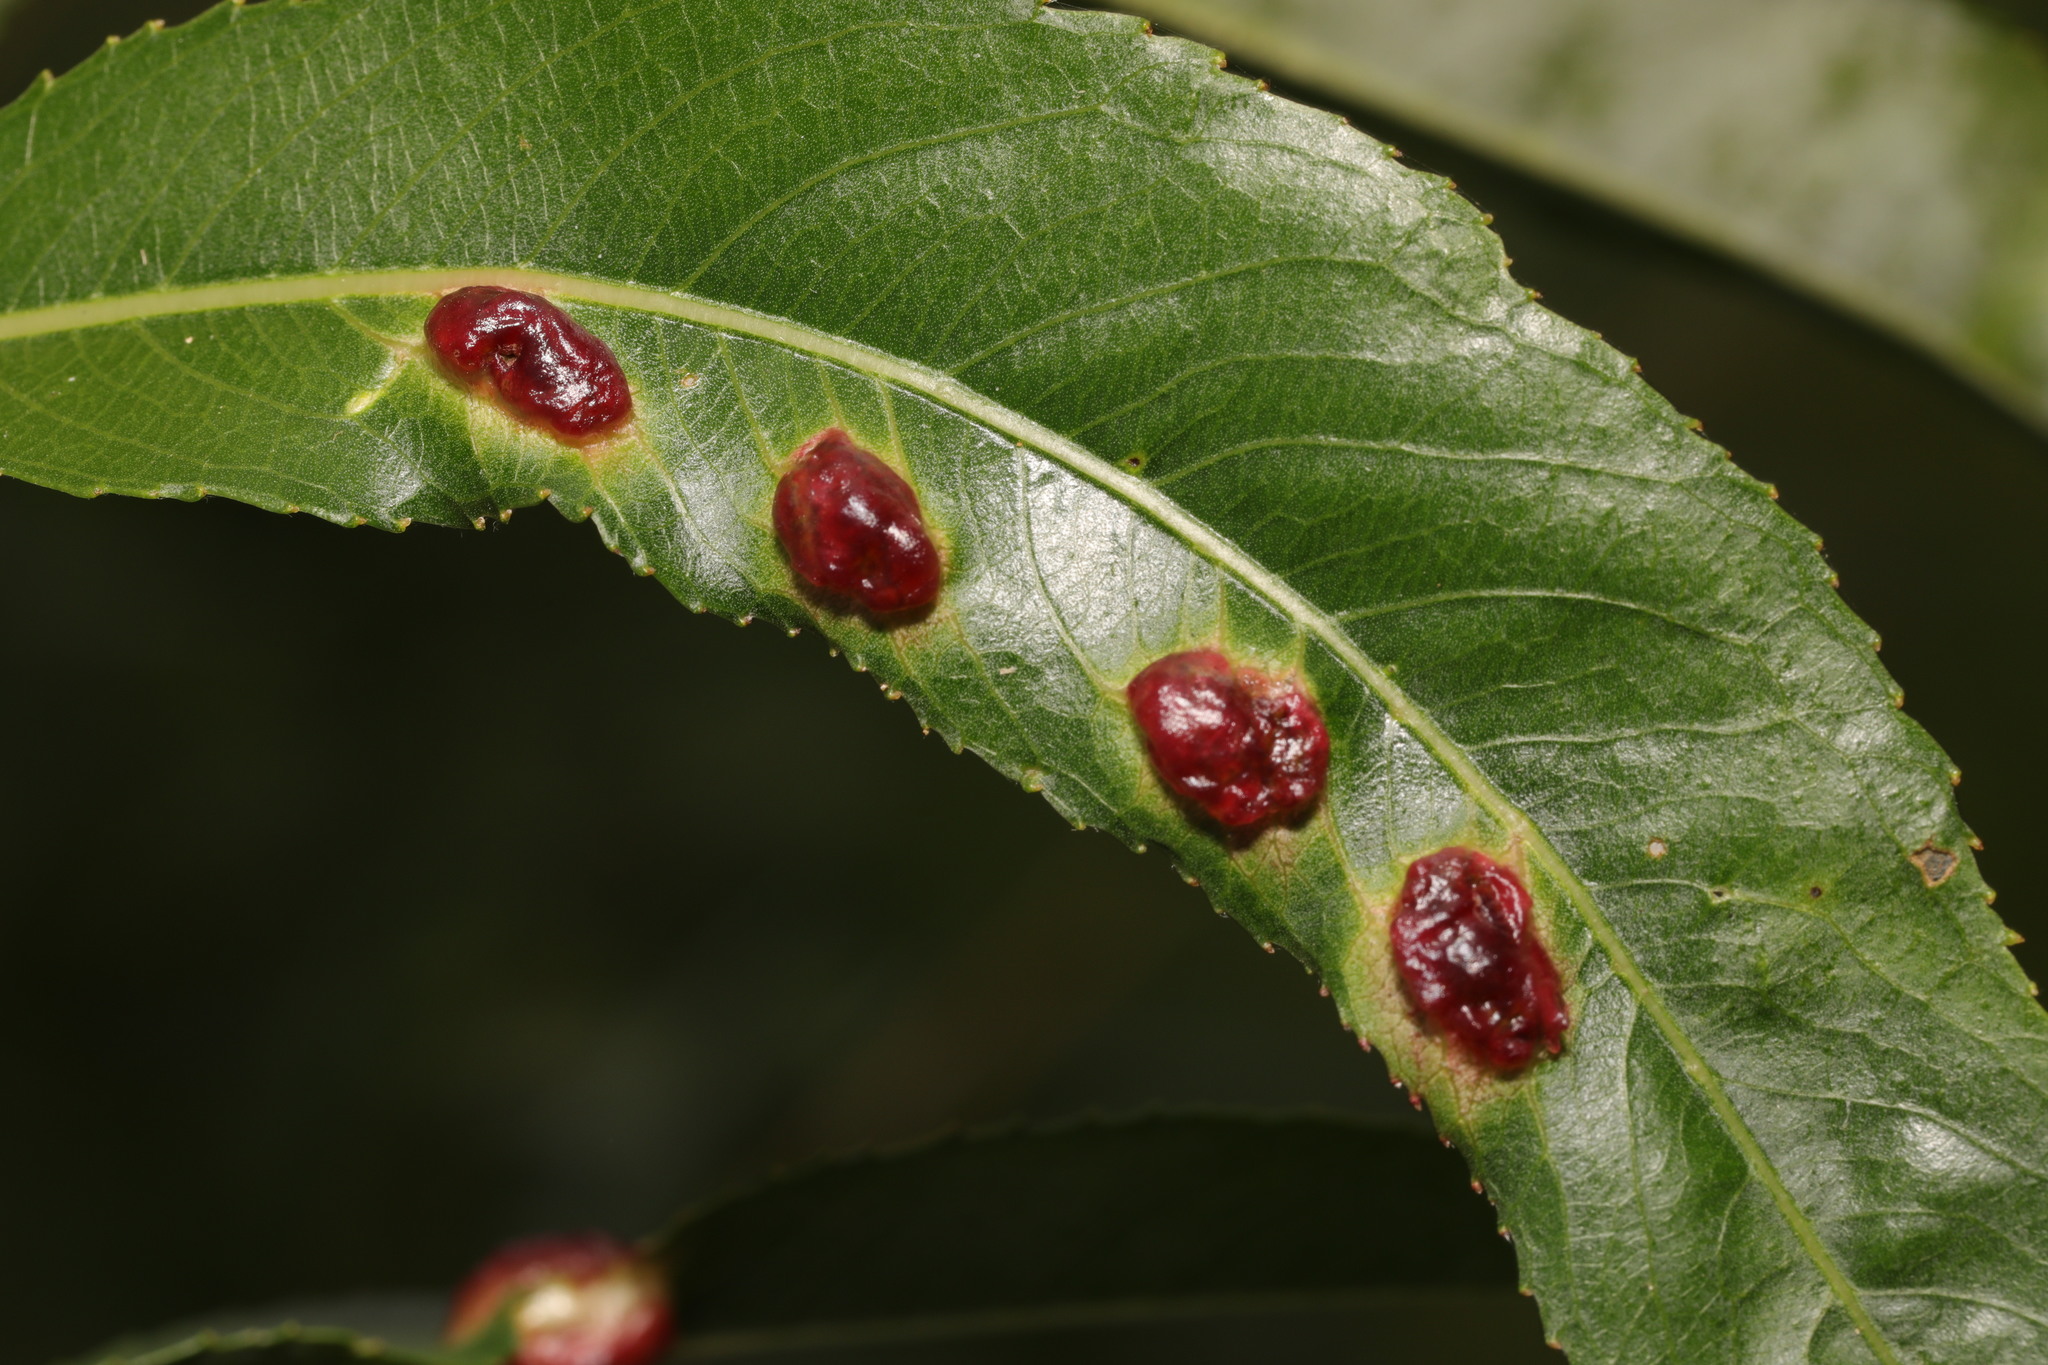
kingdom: Animalia
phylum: Arthropoda
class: Insecta
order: Hymenoptera
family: Tenthredinidae
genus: Pontania
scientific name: Pontania proxima
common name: Common sawfly
